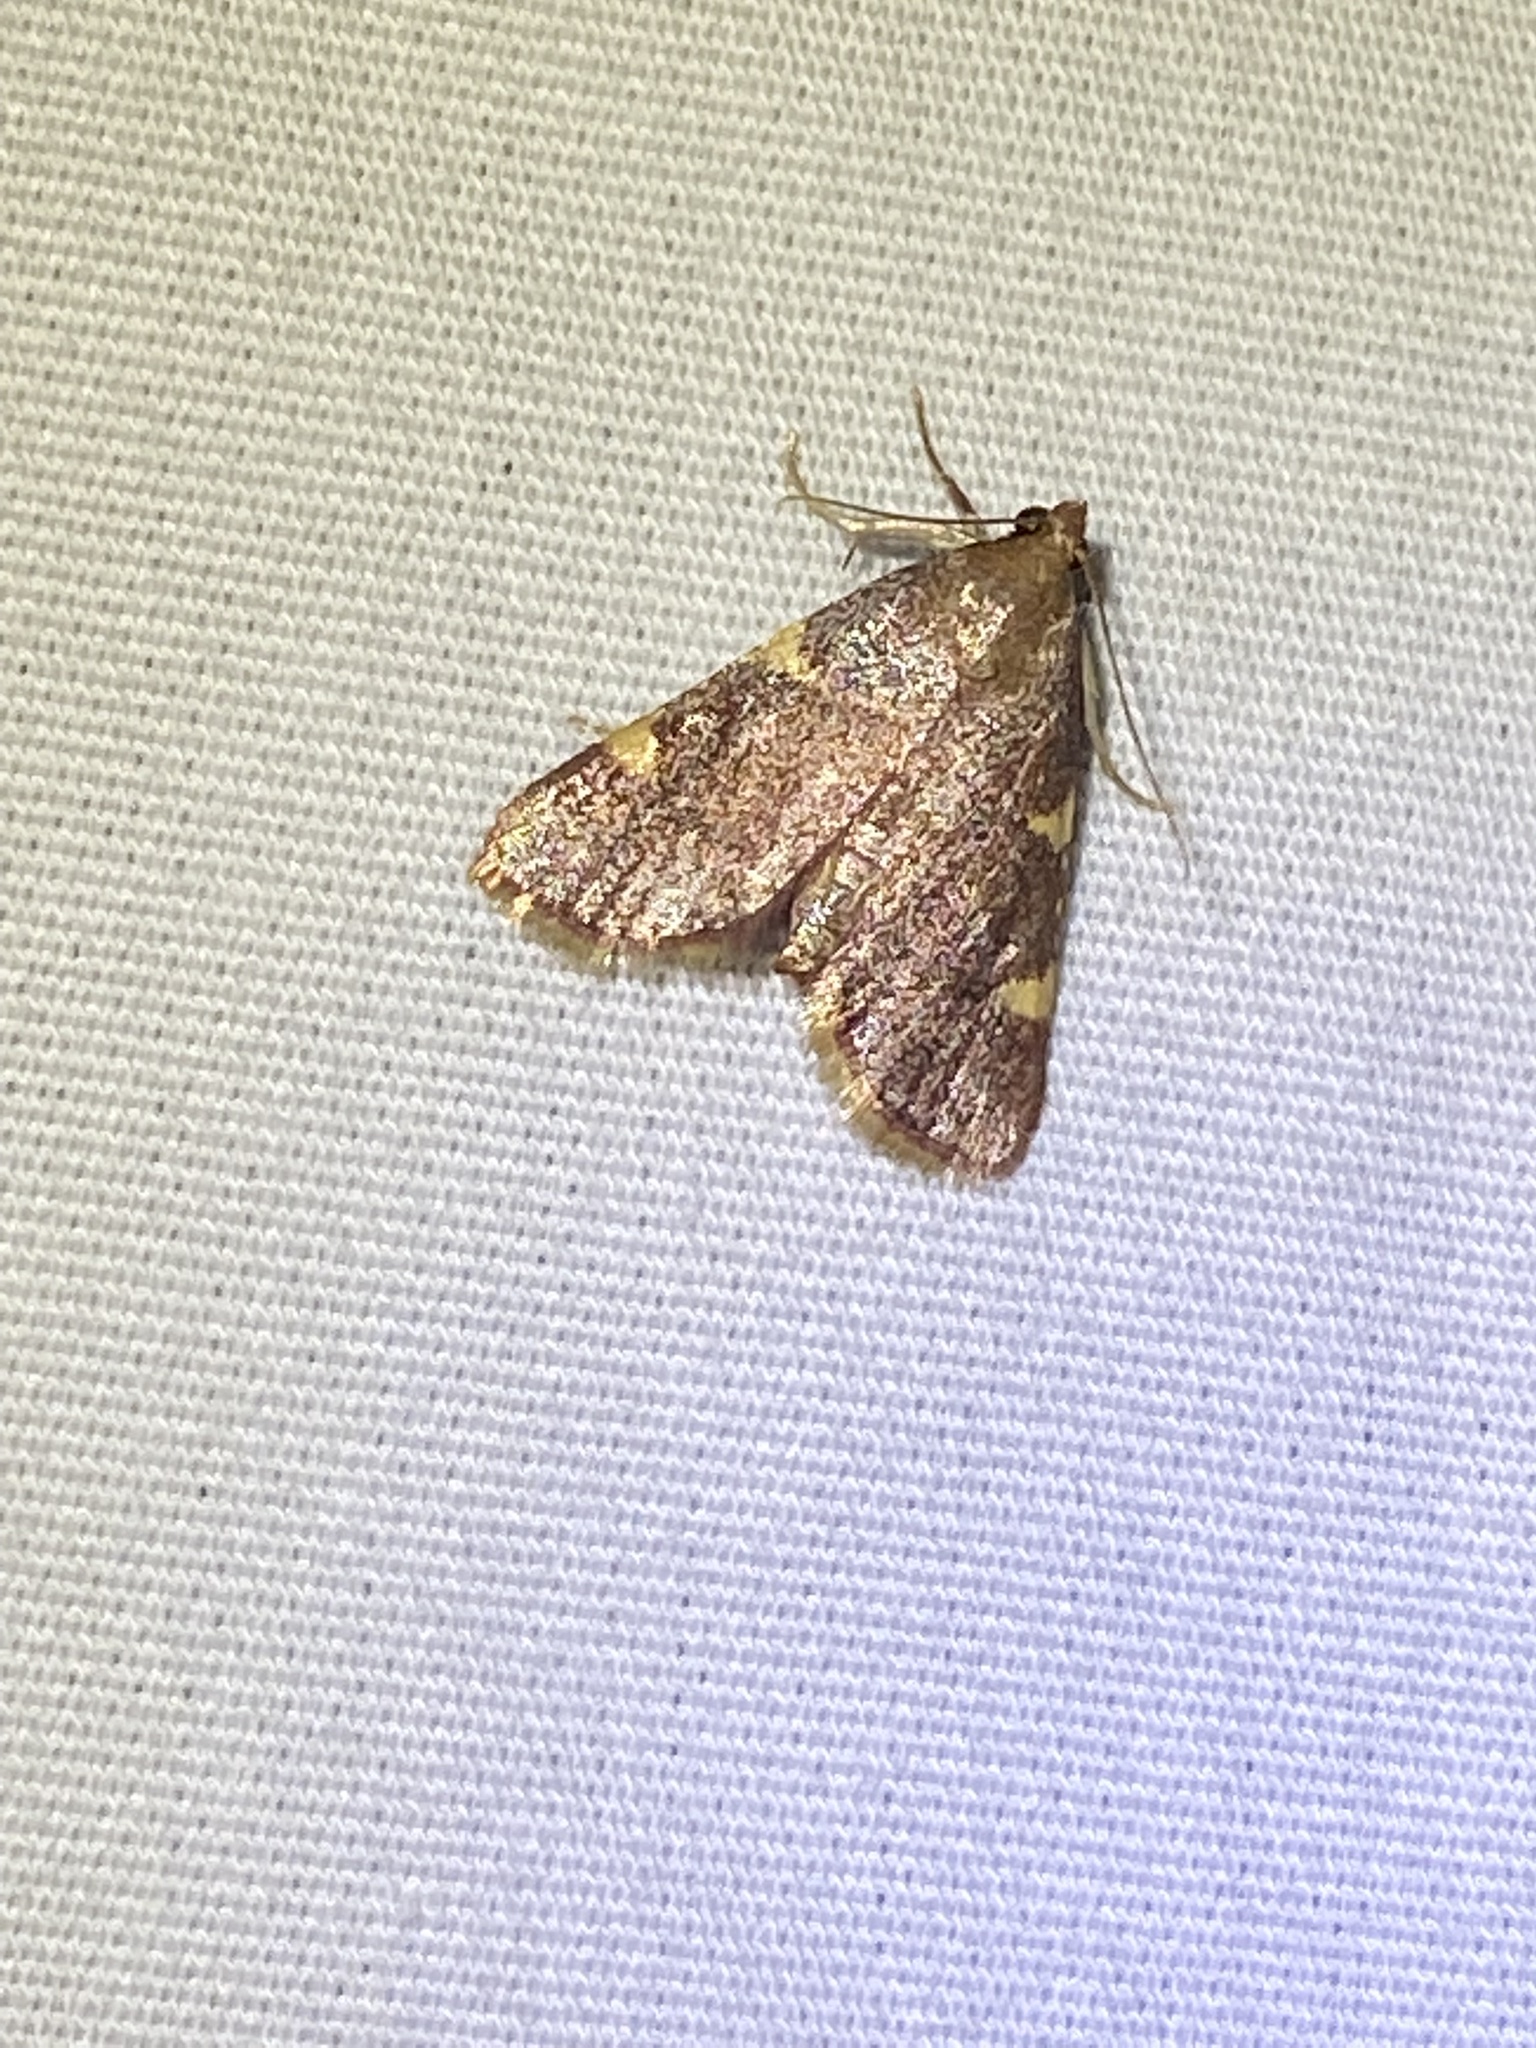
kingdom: Animalia
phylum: Arthropoda
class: Insecta
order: Lepidoptera
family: Pyralidae
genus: Hypsopygia
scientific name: Hypsopygia olinalis
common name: Yellow-fringed dolichomia moth
